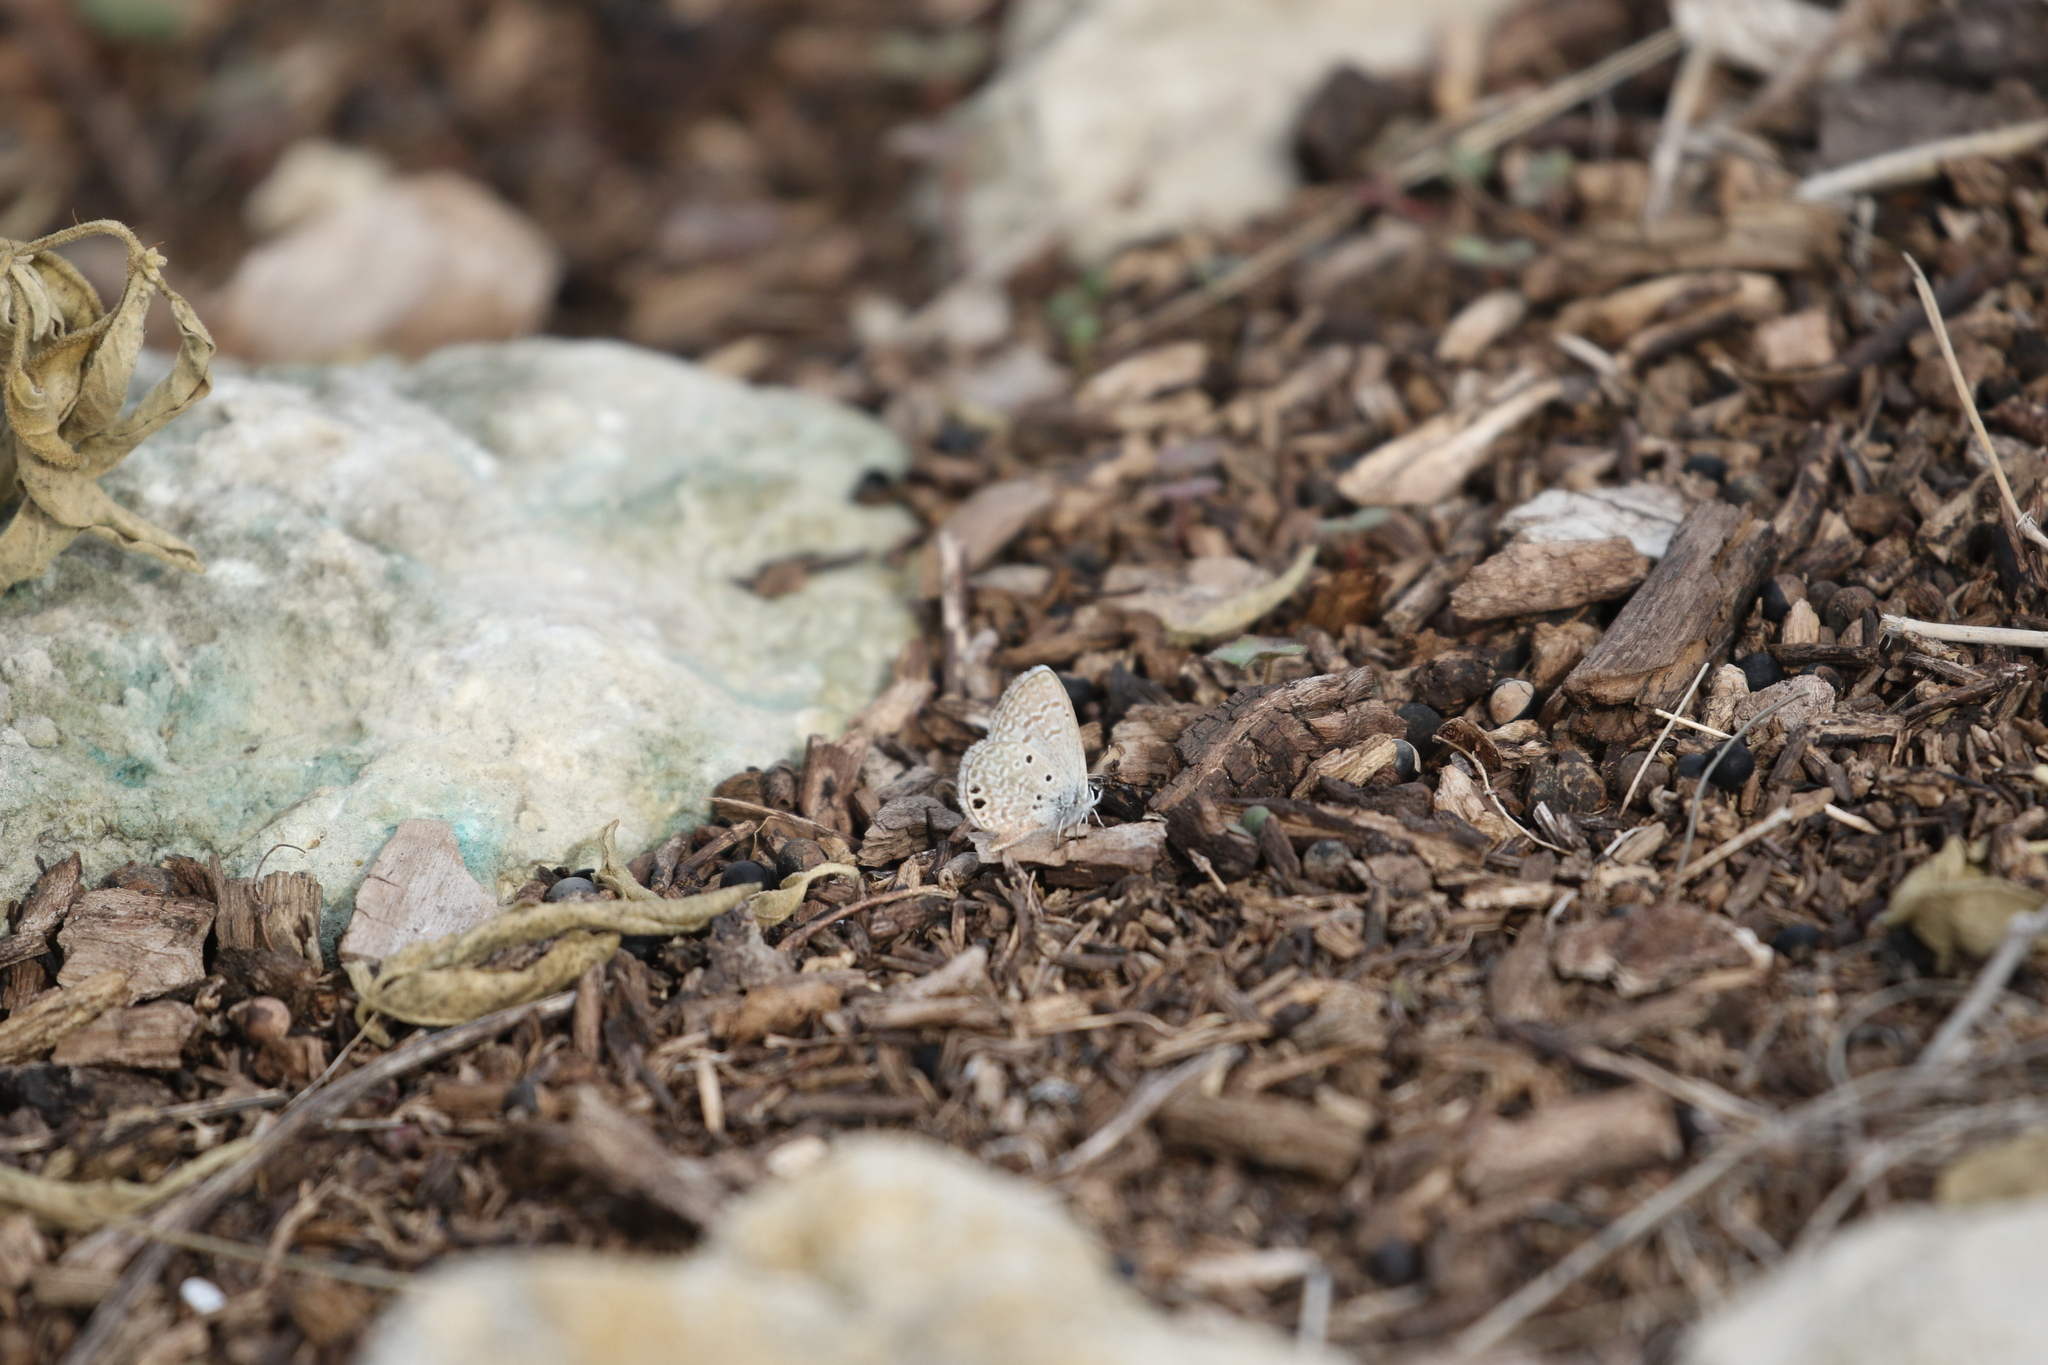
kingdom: Animalia
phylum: Arthropoda
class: Insecta
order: Lepidoptera
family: Lycaenidae
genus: Hemiargus
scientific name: Hemiargus ceraunus
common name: Ceraunus blue
